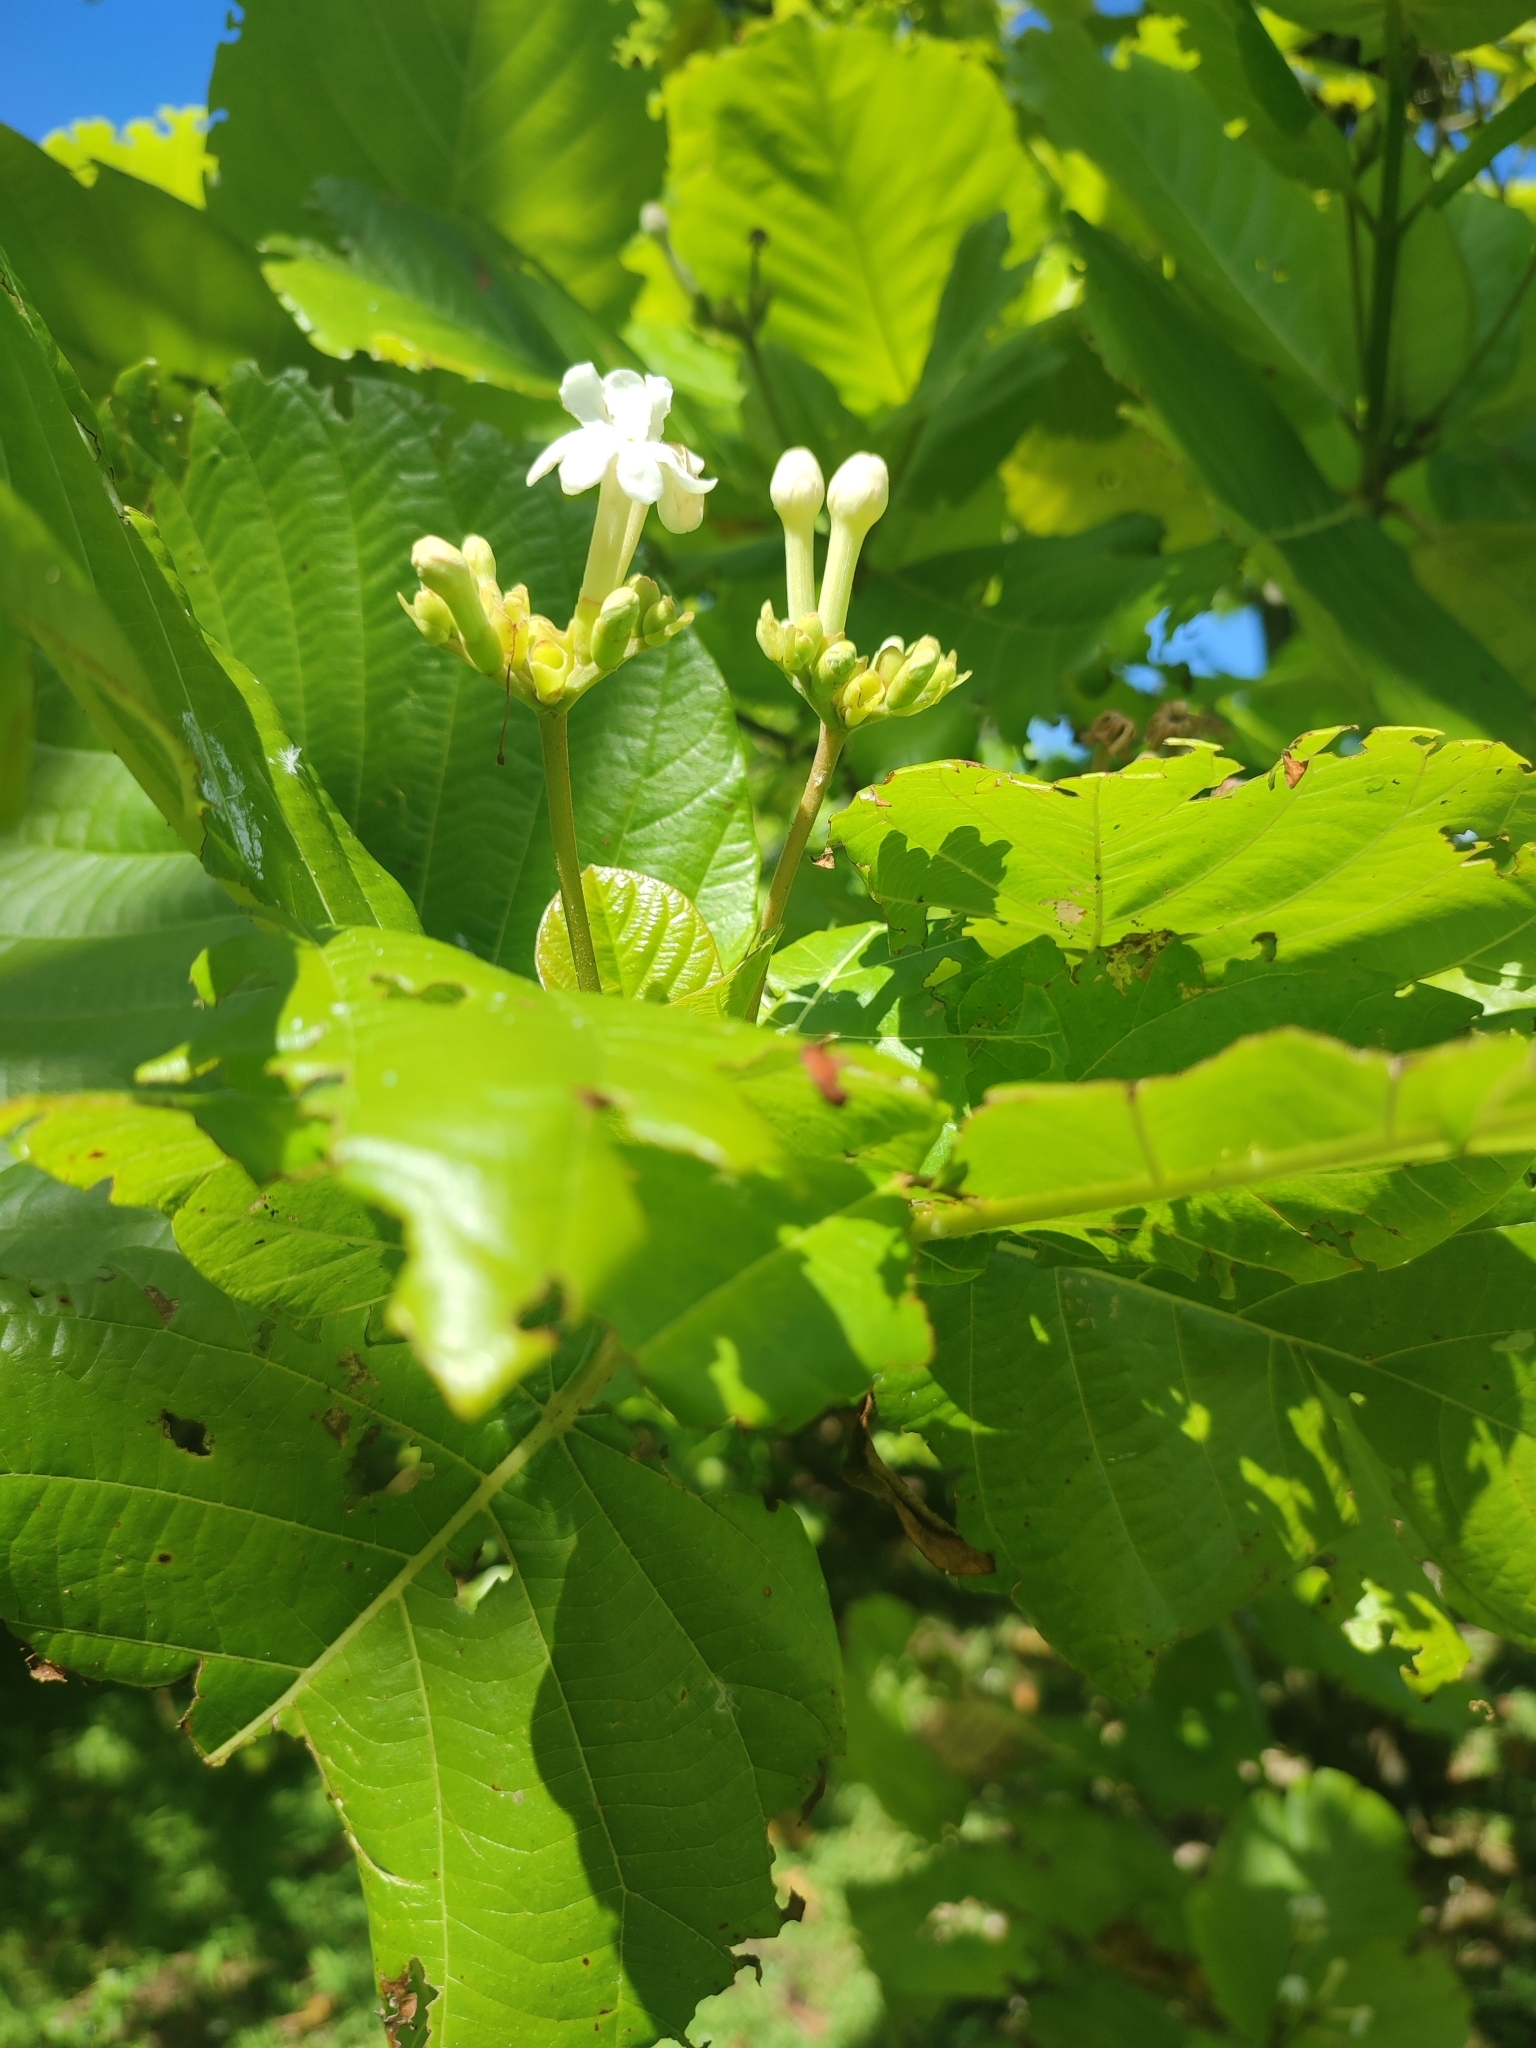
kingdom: Plantae
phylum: Tracheophyta
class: Magnoliopsida
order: Gentianales
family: Rubiaceae
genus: Guettarda
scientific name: Guettarda speciosa
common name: Sea randa
